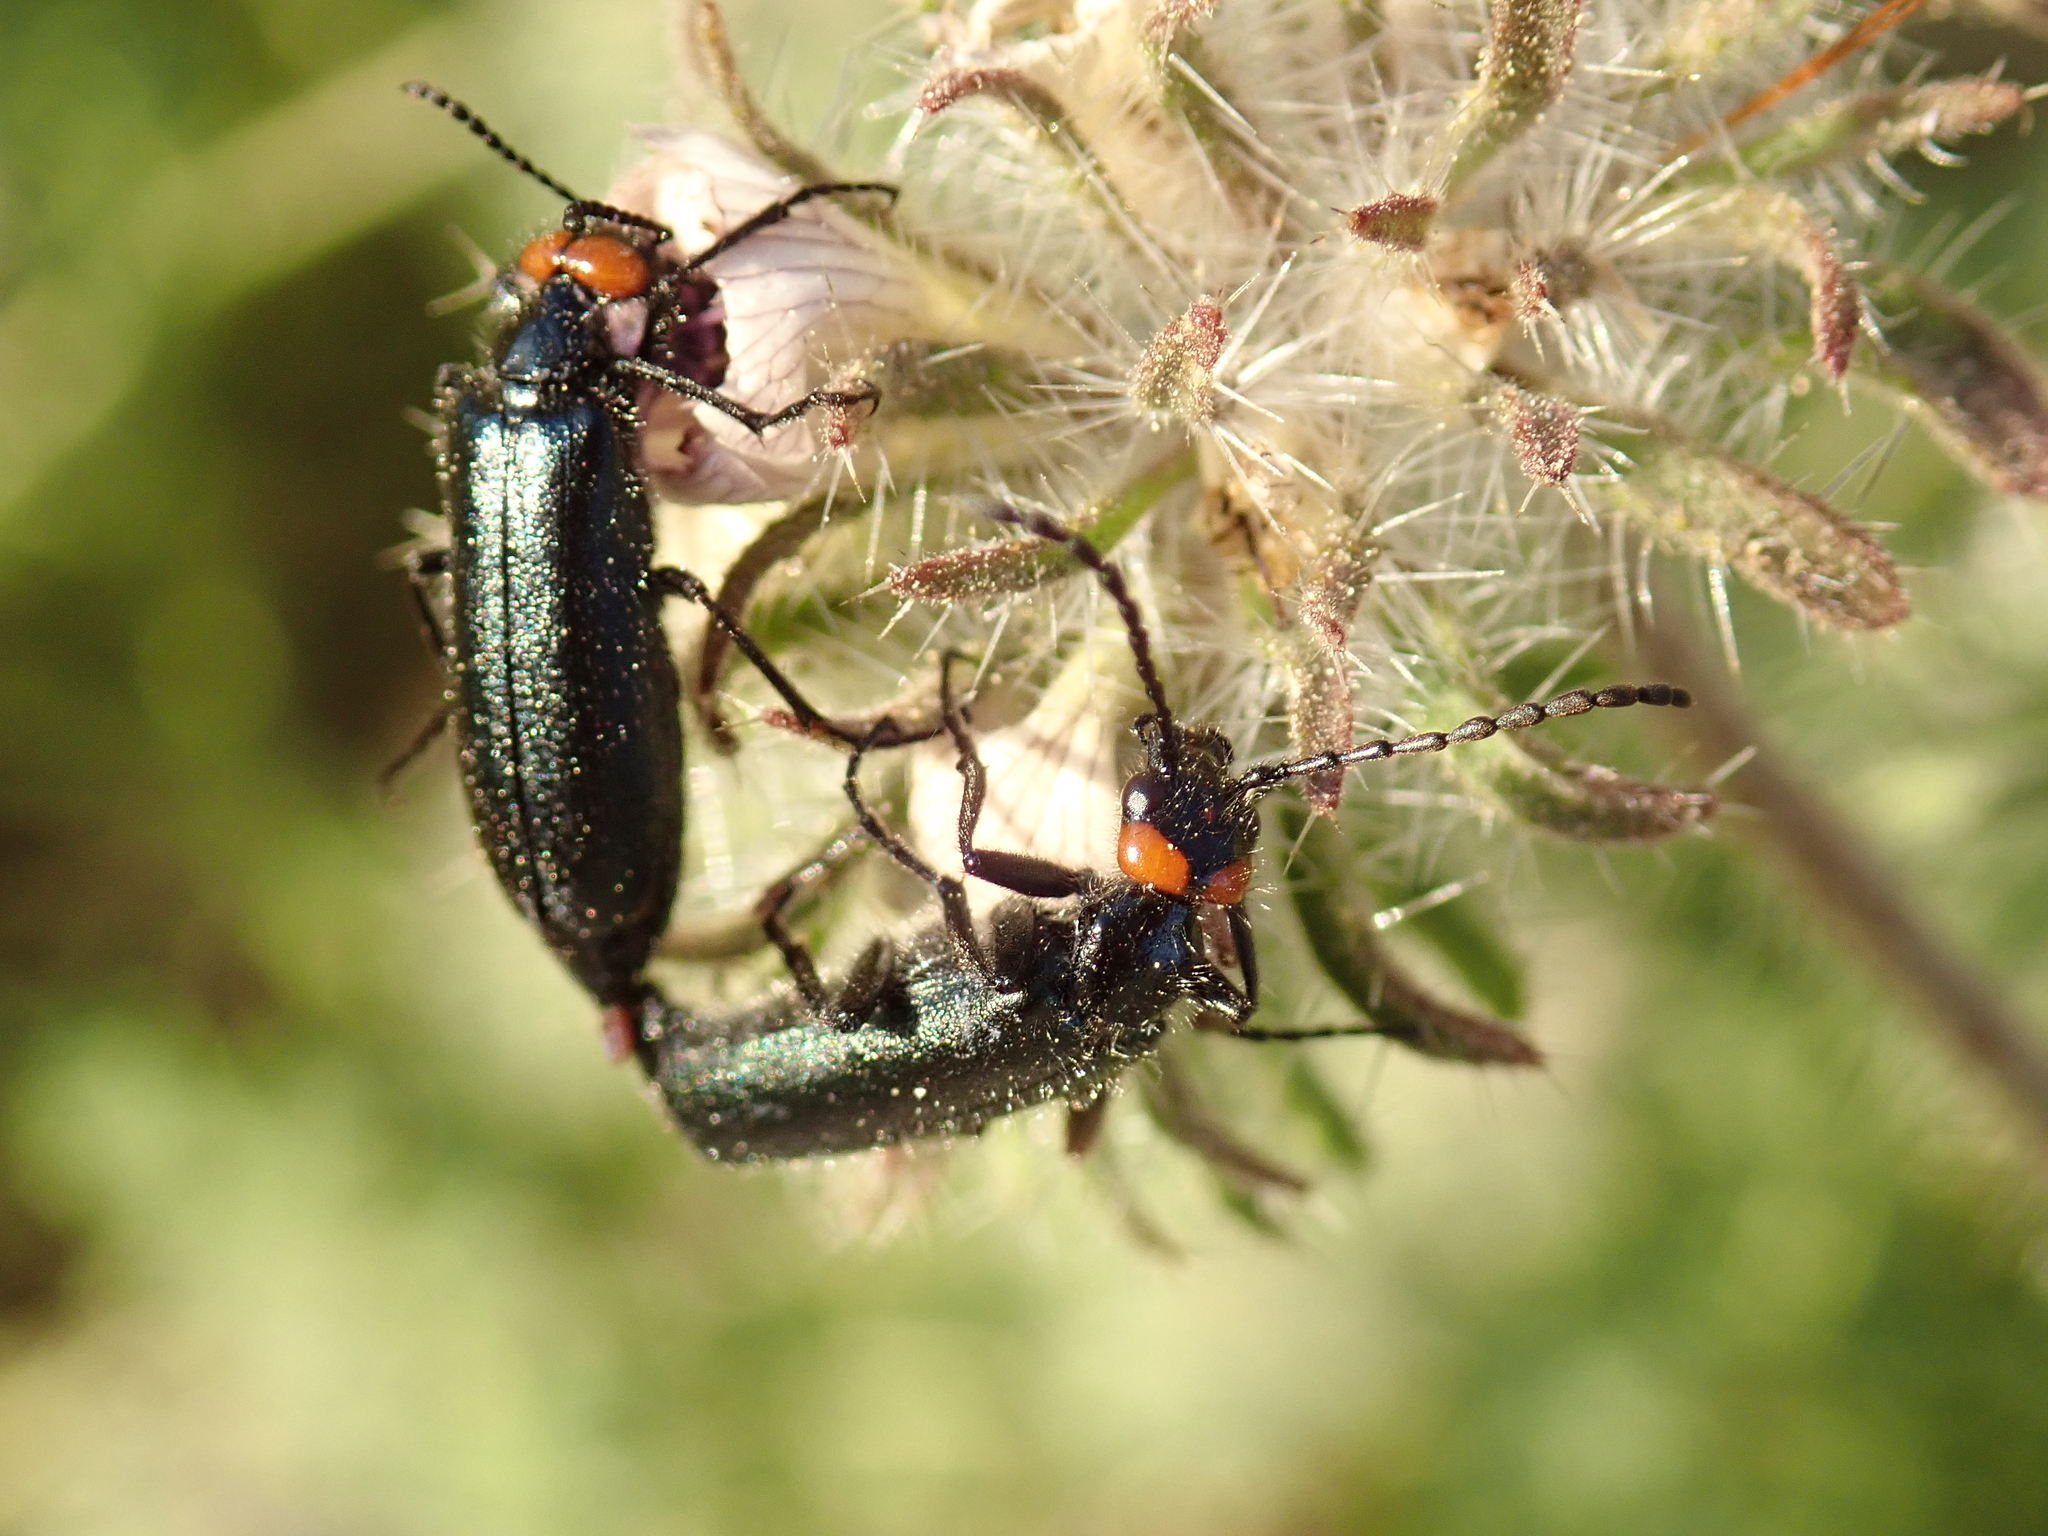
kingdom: Animalia
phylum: Arthropoda
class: Insecta
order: Coleoptera
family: Meloidae
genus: Lytta
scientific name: Lytta auriculata
